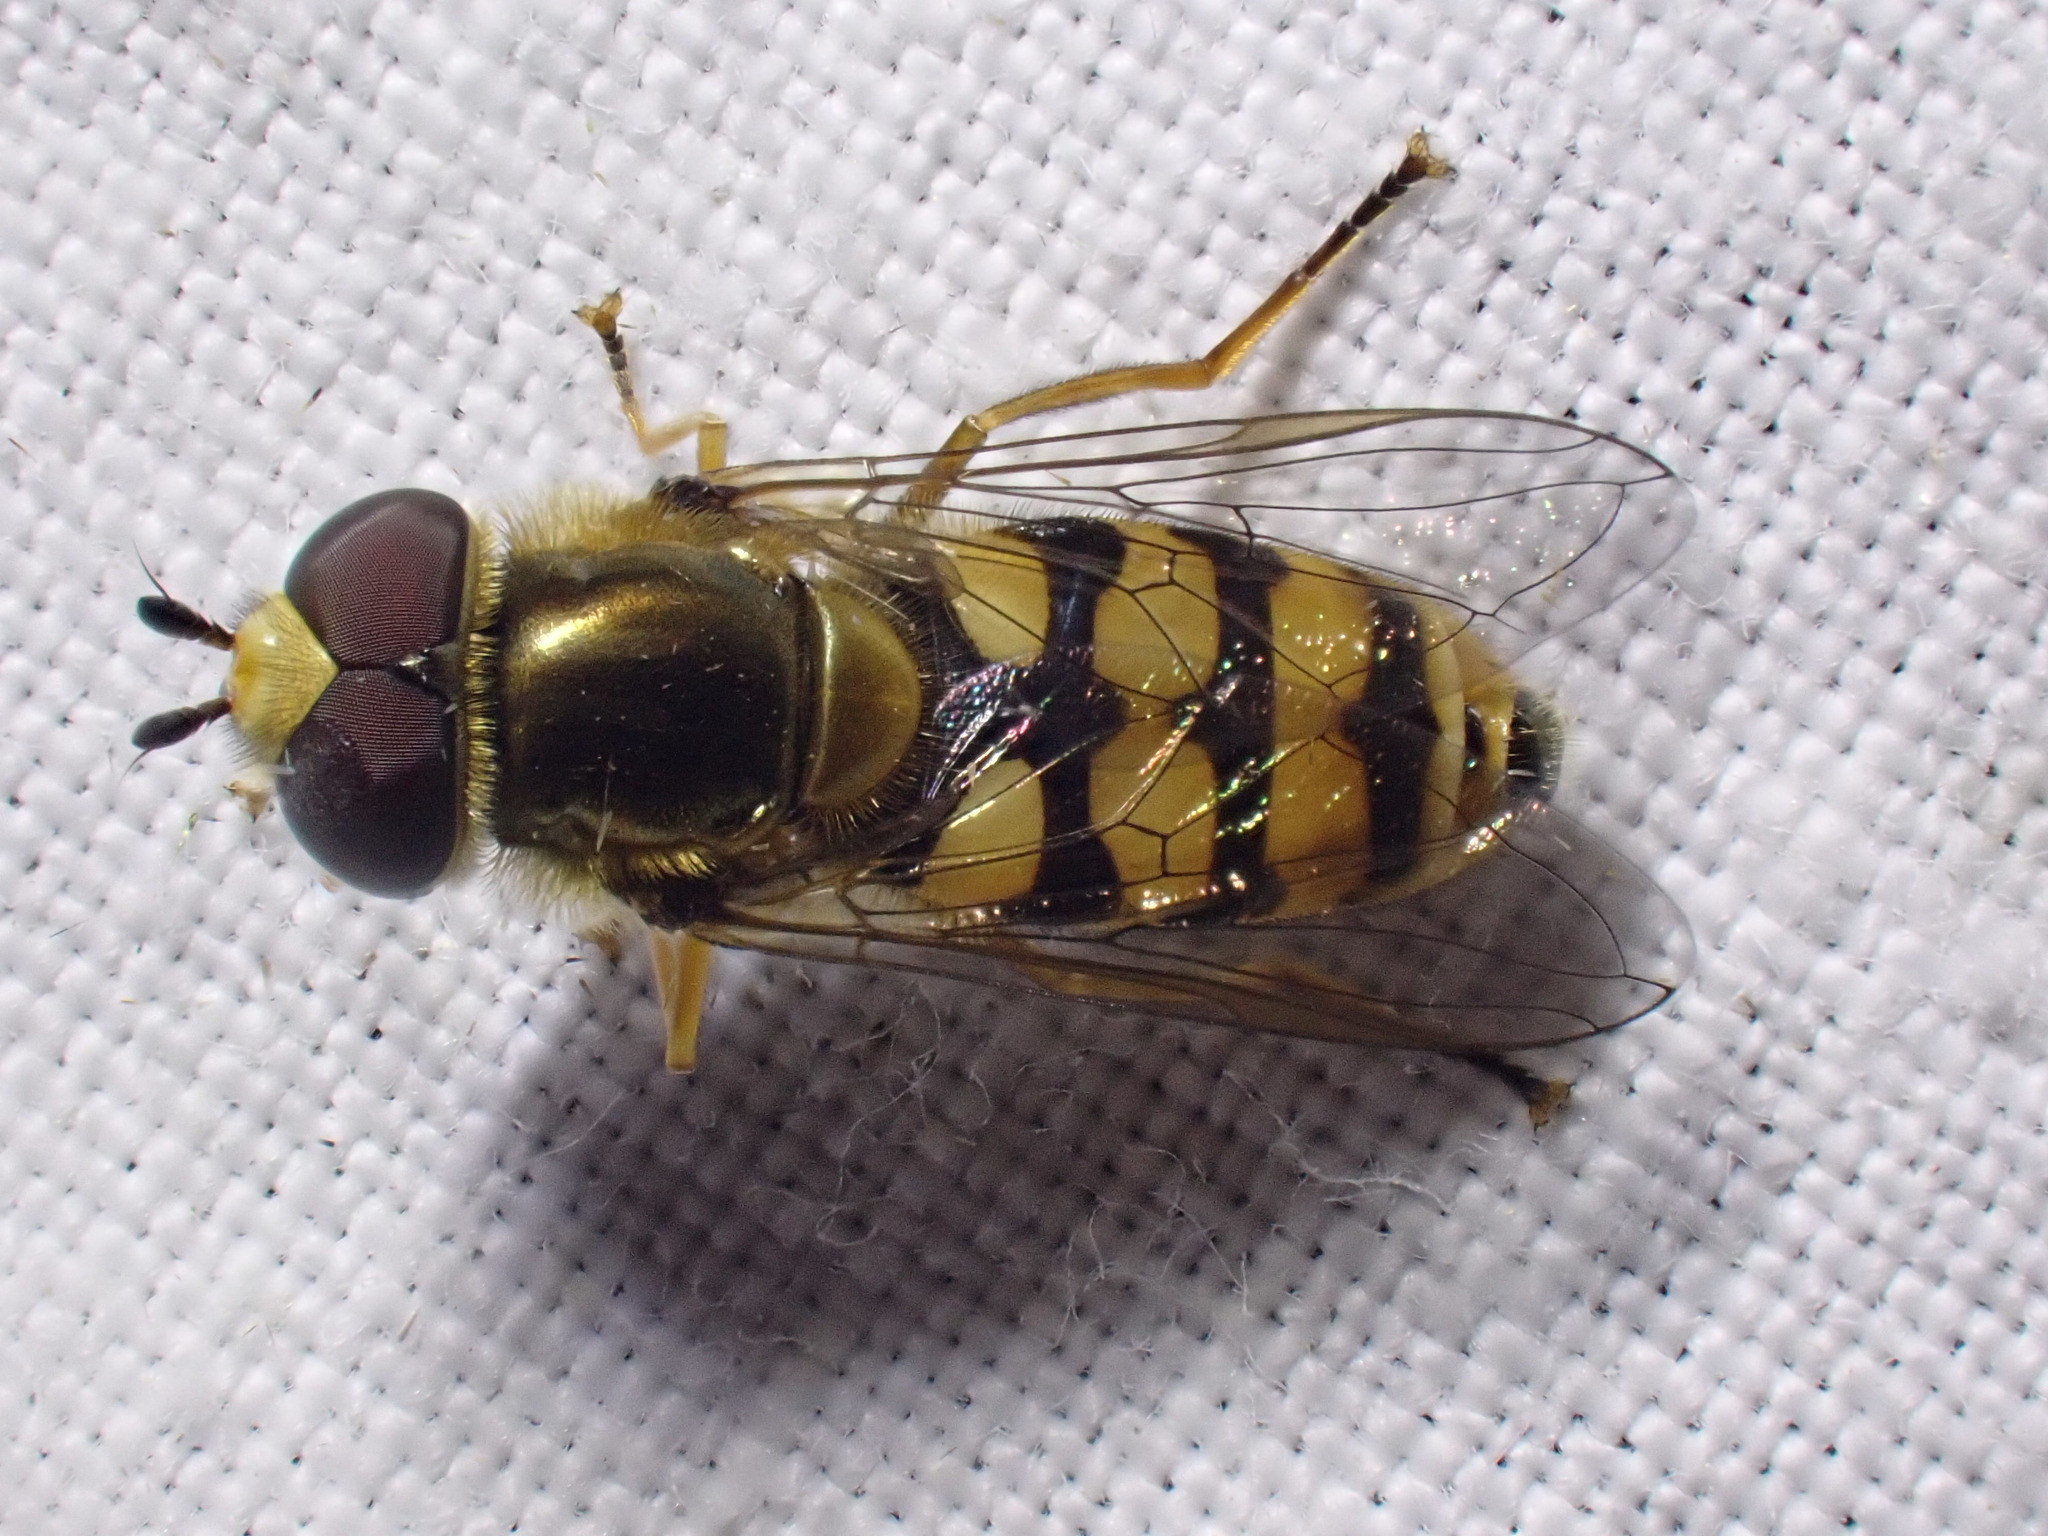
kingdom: Animalia
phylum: Arthropoda
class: Insecta
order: Diptera
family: Syrphidae
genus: Eupeodes
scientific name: Eupeodes corollae
